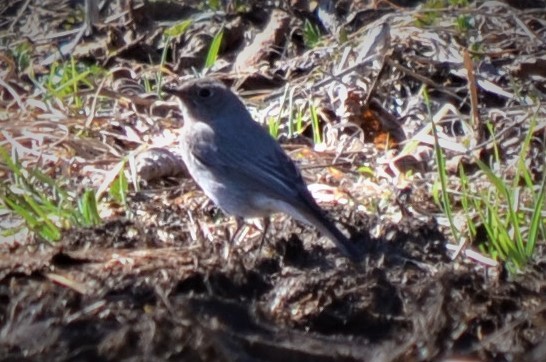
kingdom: Animalia
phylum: Chordata
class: Aves
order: Passeriformes
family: Muscicapidae
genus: Phoenicurus
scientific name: Phoenicurus ochruros
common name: Black redstart
